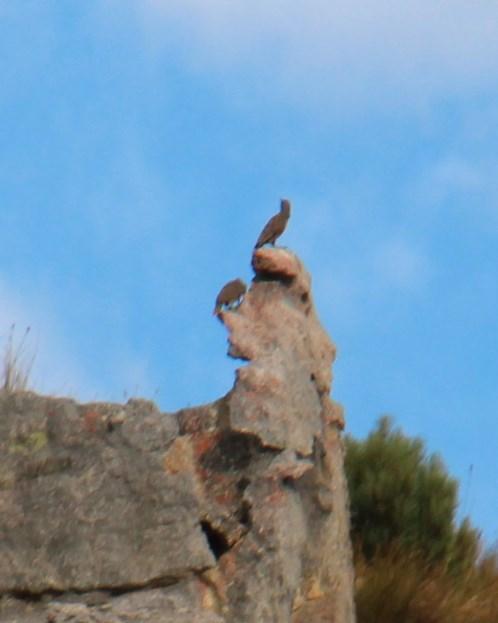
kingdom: Animalia
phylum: Chordata
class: Aves
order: Piciformes
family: Picidae
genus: Geocolaptes
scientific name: Geocolaptes olivaceus
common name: Ground woodpecker
